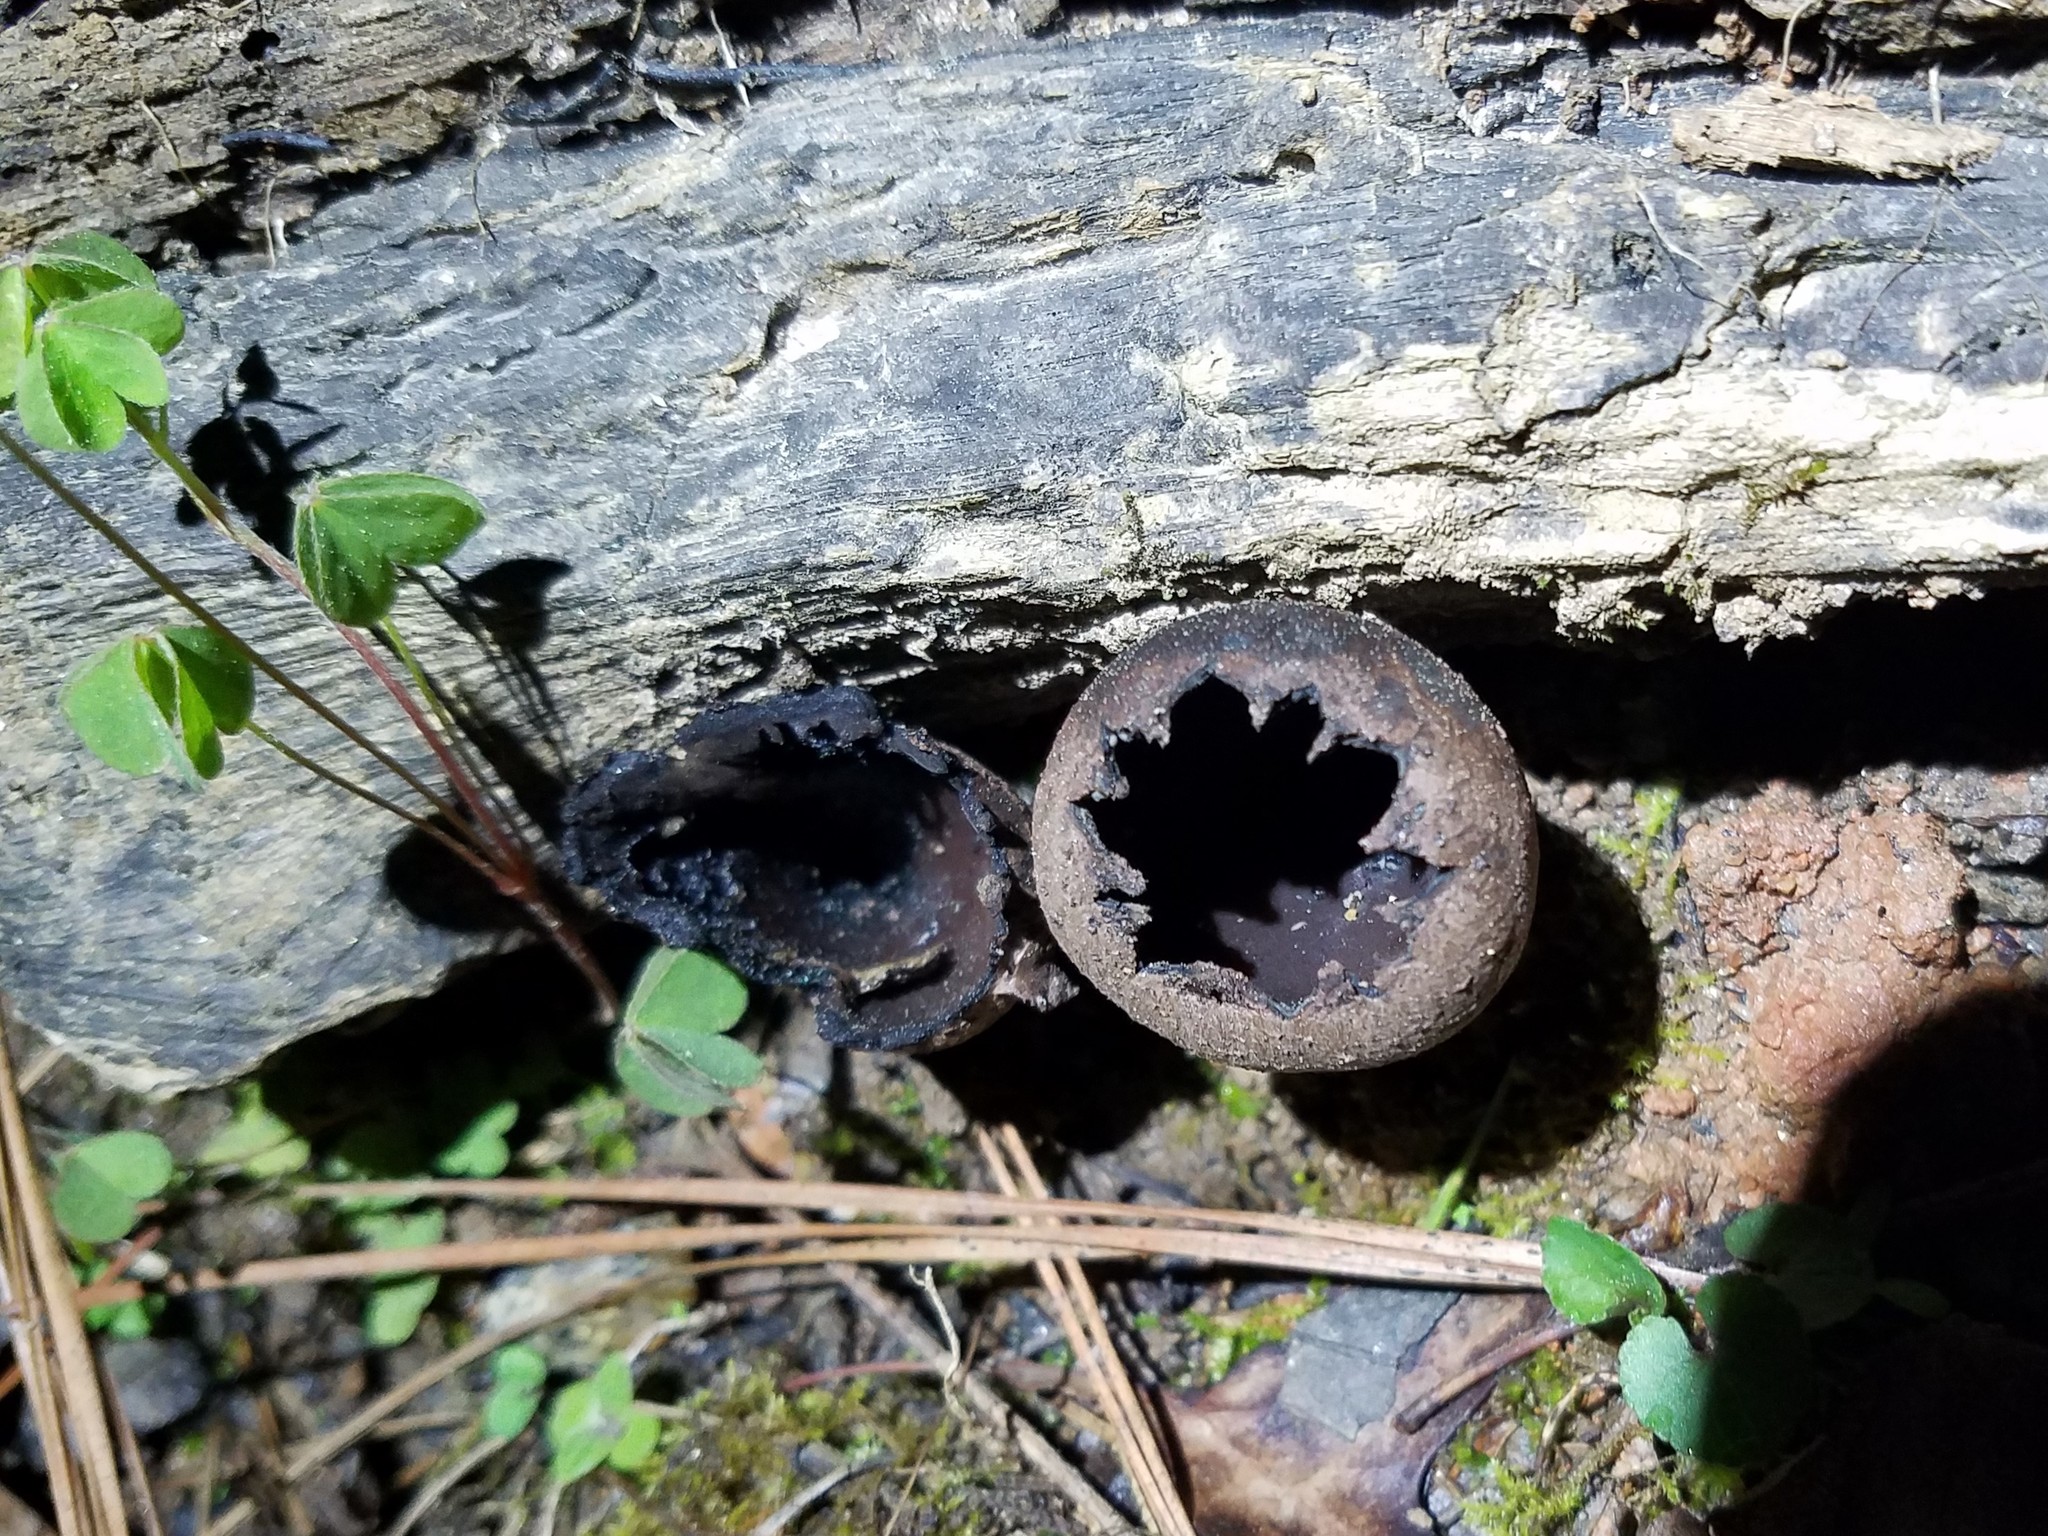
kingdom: Fungi
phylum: Ascomycota
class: Pezizomycetes
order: Pezizales
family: Sarcosomataceae
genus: Urnula
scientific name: Urnula craterium
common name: Devil's urn
